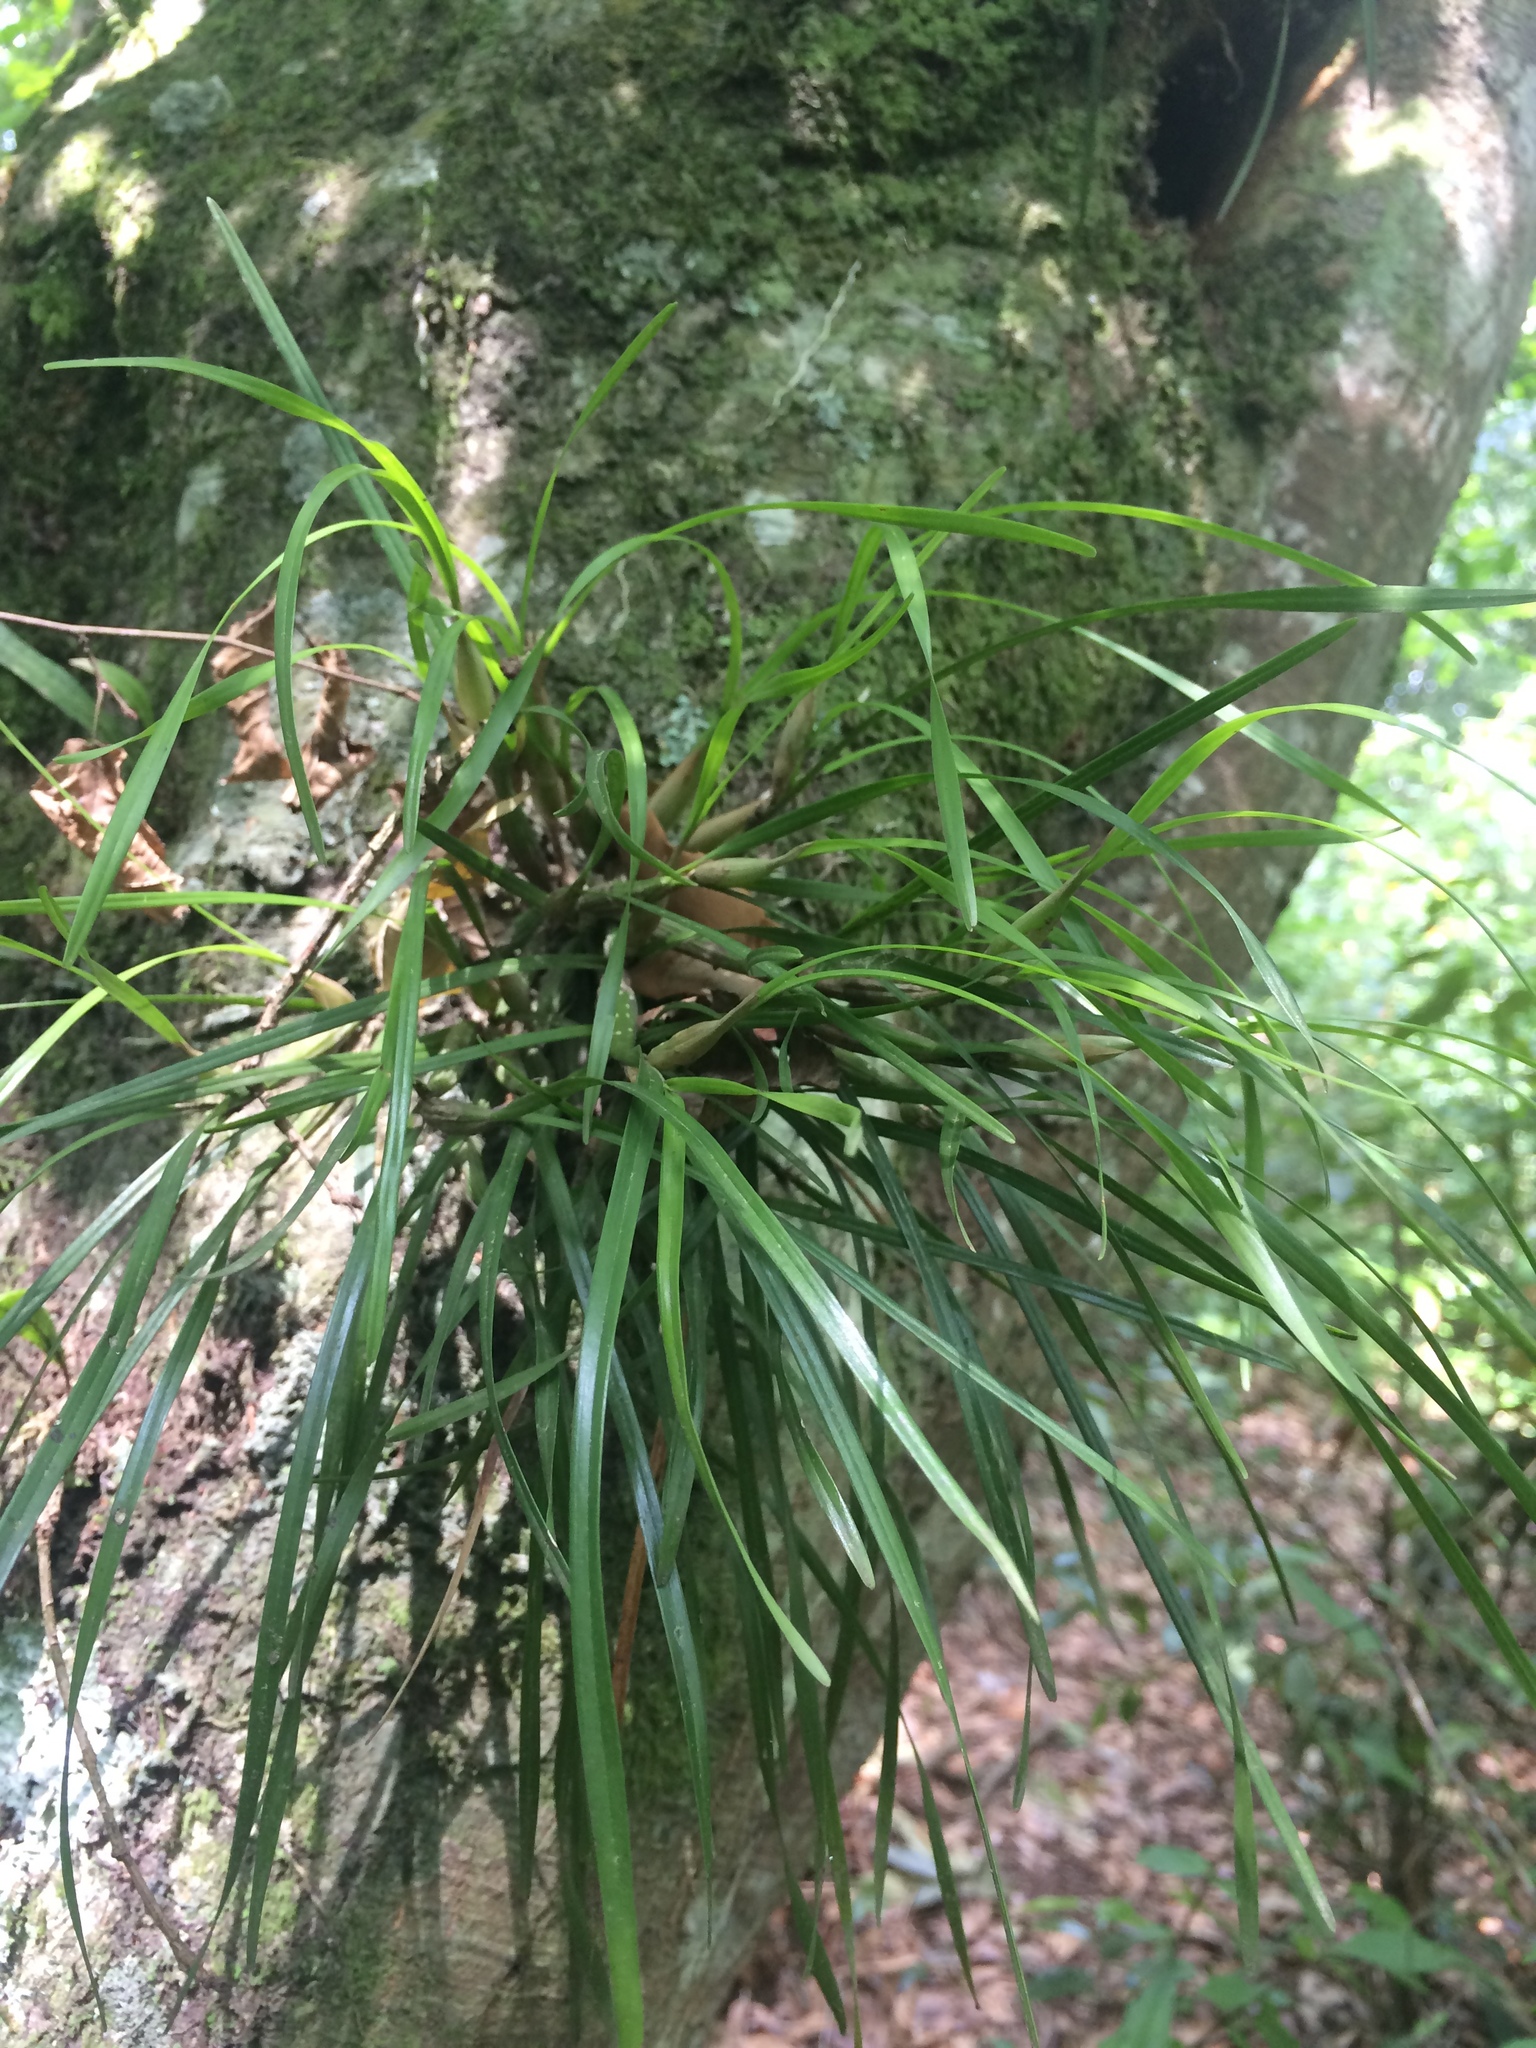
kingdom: Plantae
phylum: Tracheophyta
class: Liliopsida
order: Asparagales
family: Orchidaceae
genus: Scaphyglottis
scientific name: Scaphyglottis fasciculata
